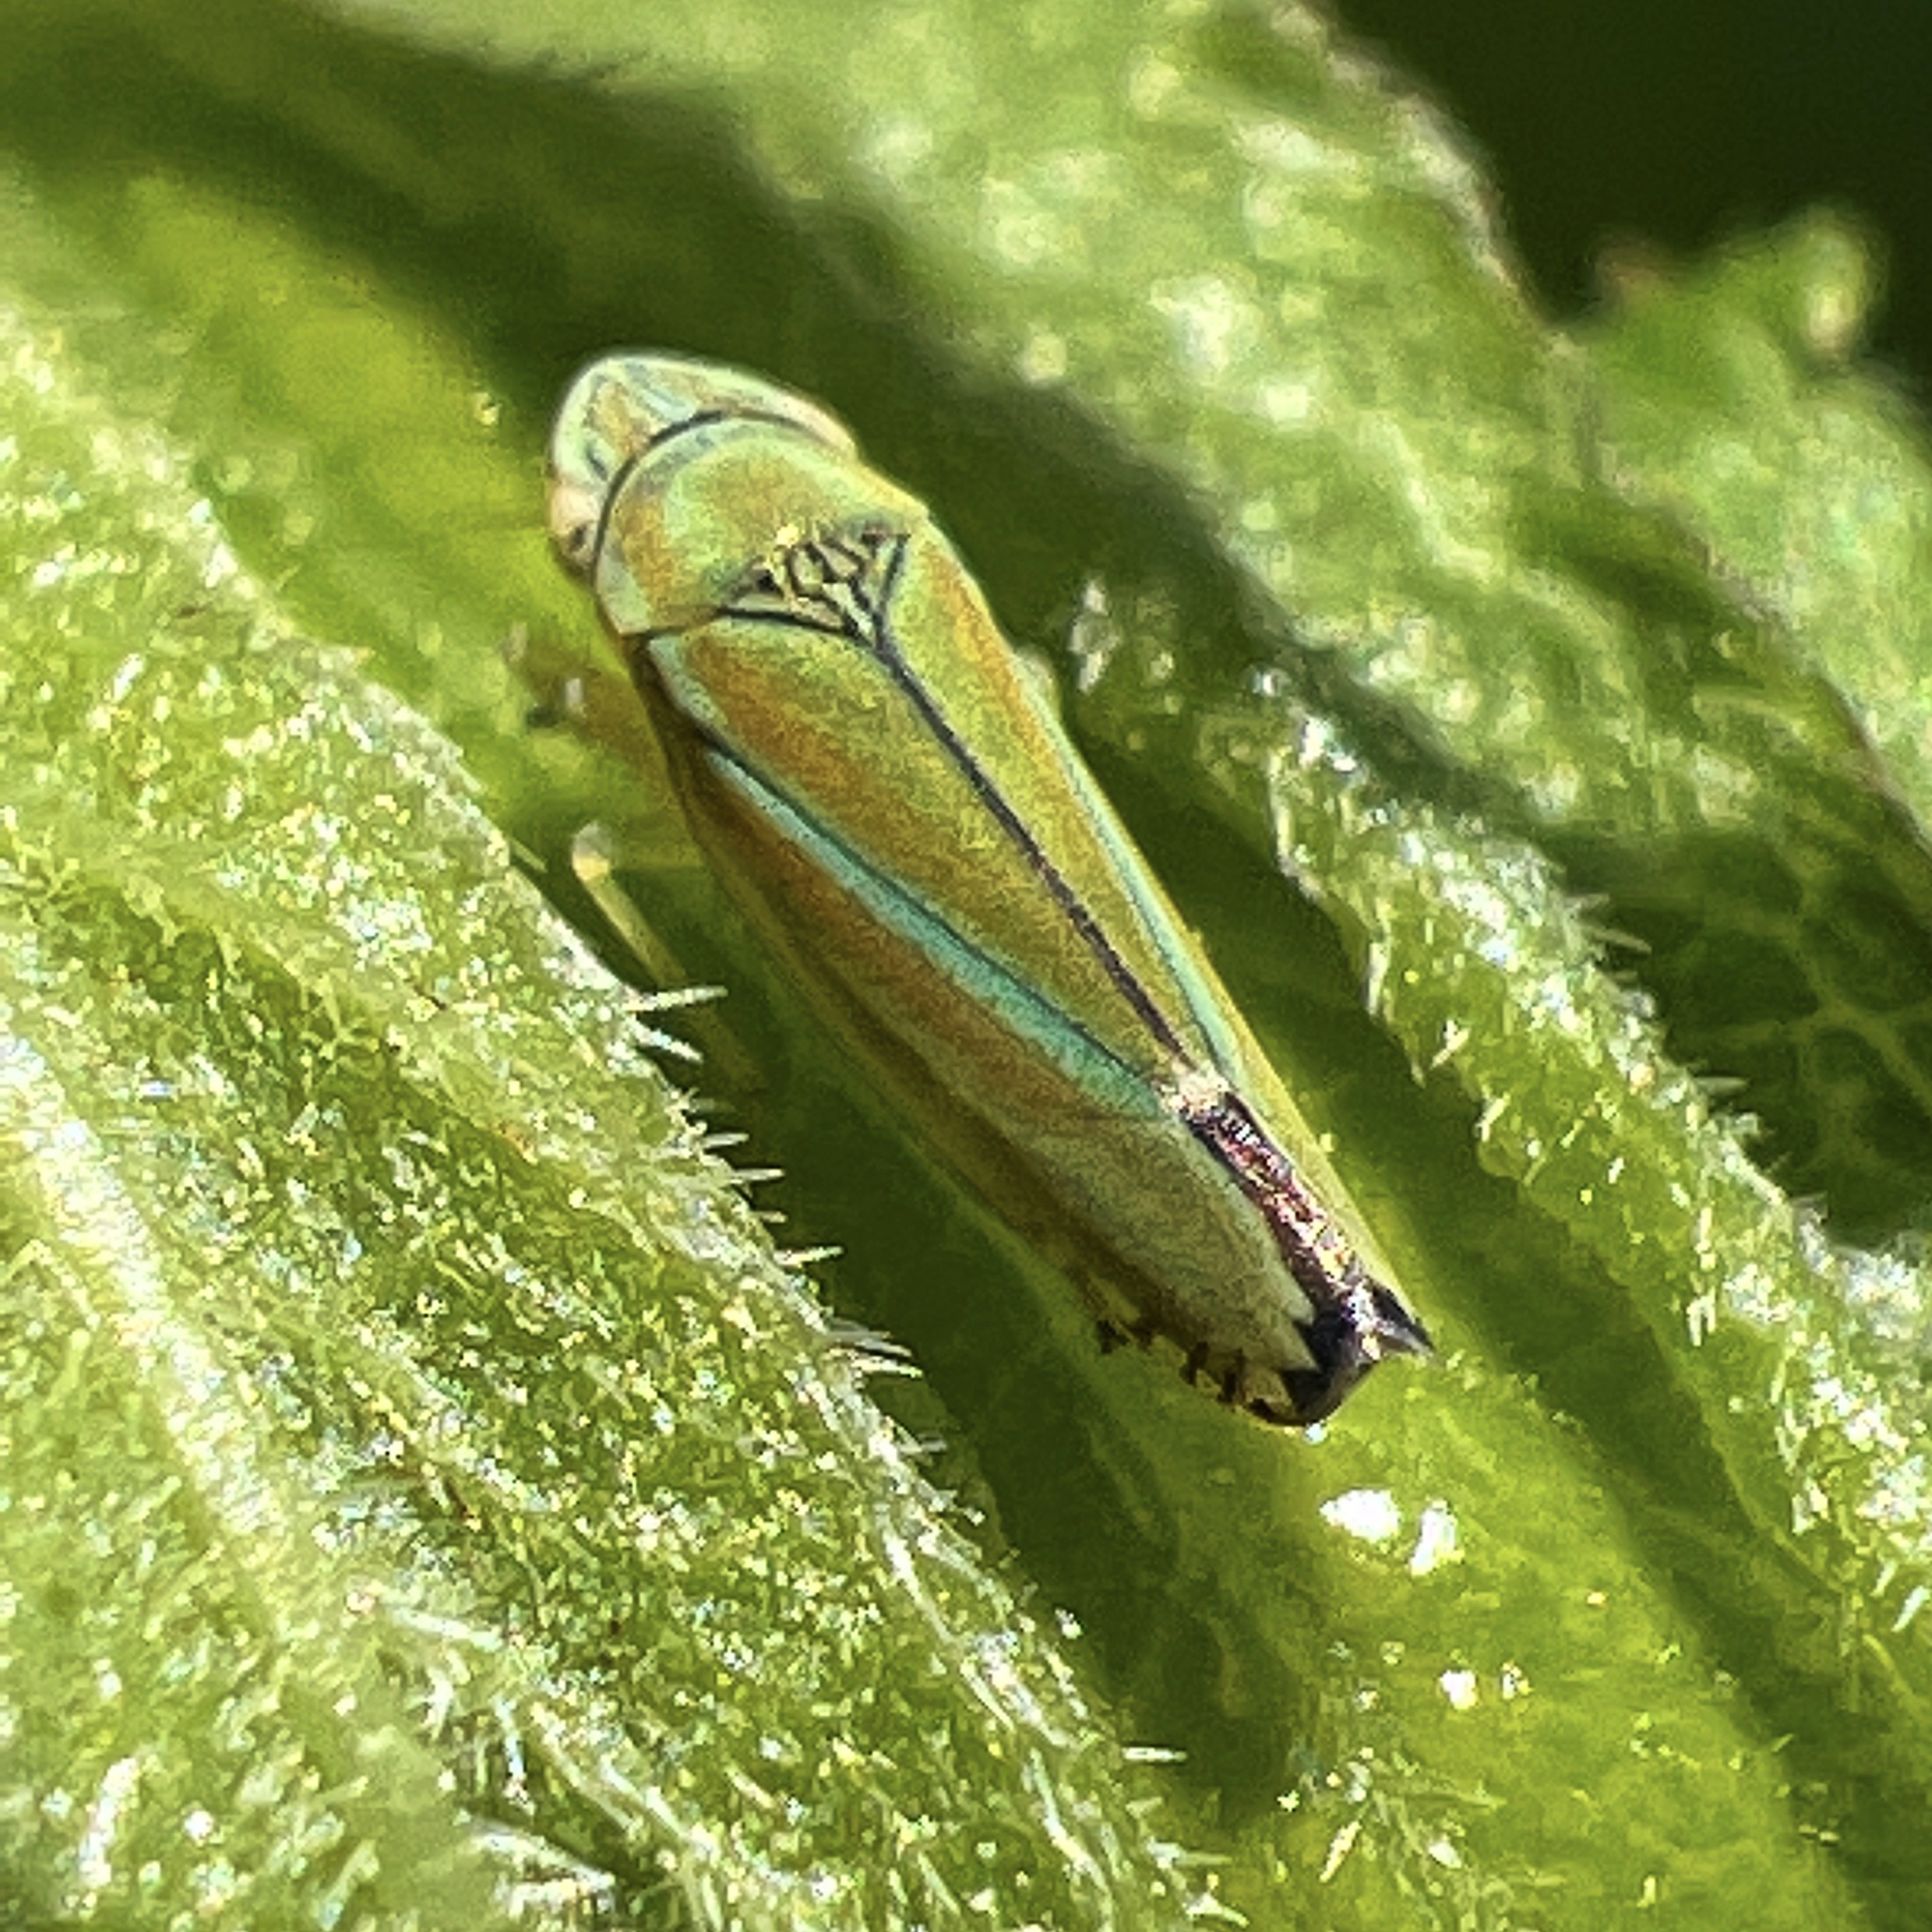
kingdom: Animalia
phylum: Arthropoda
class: Insecta
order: Hemiptera
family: Cicadellidae
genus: Graphocephala
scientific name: Graphocephala versuta
